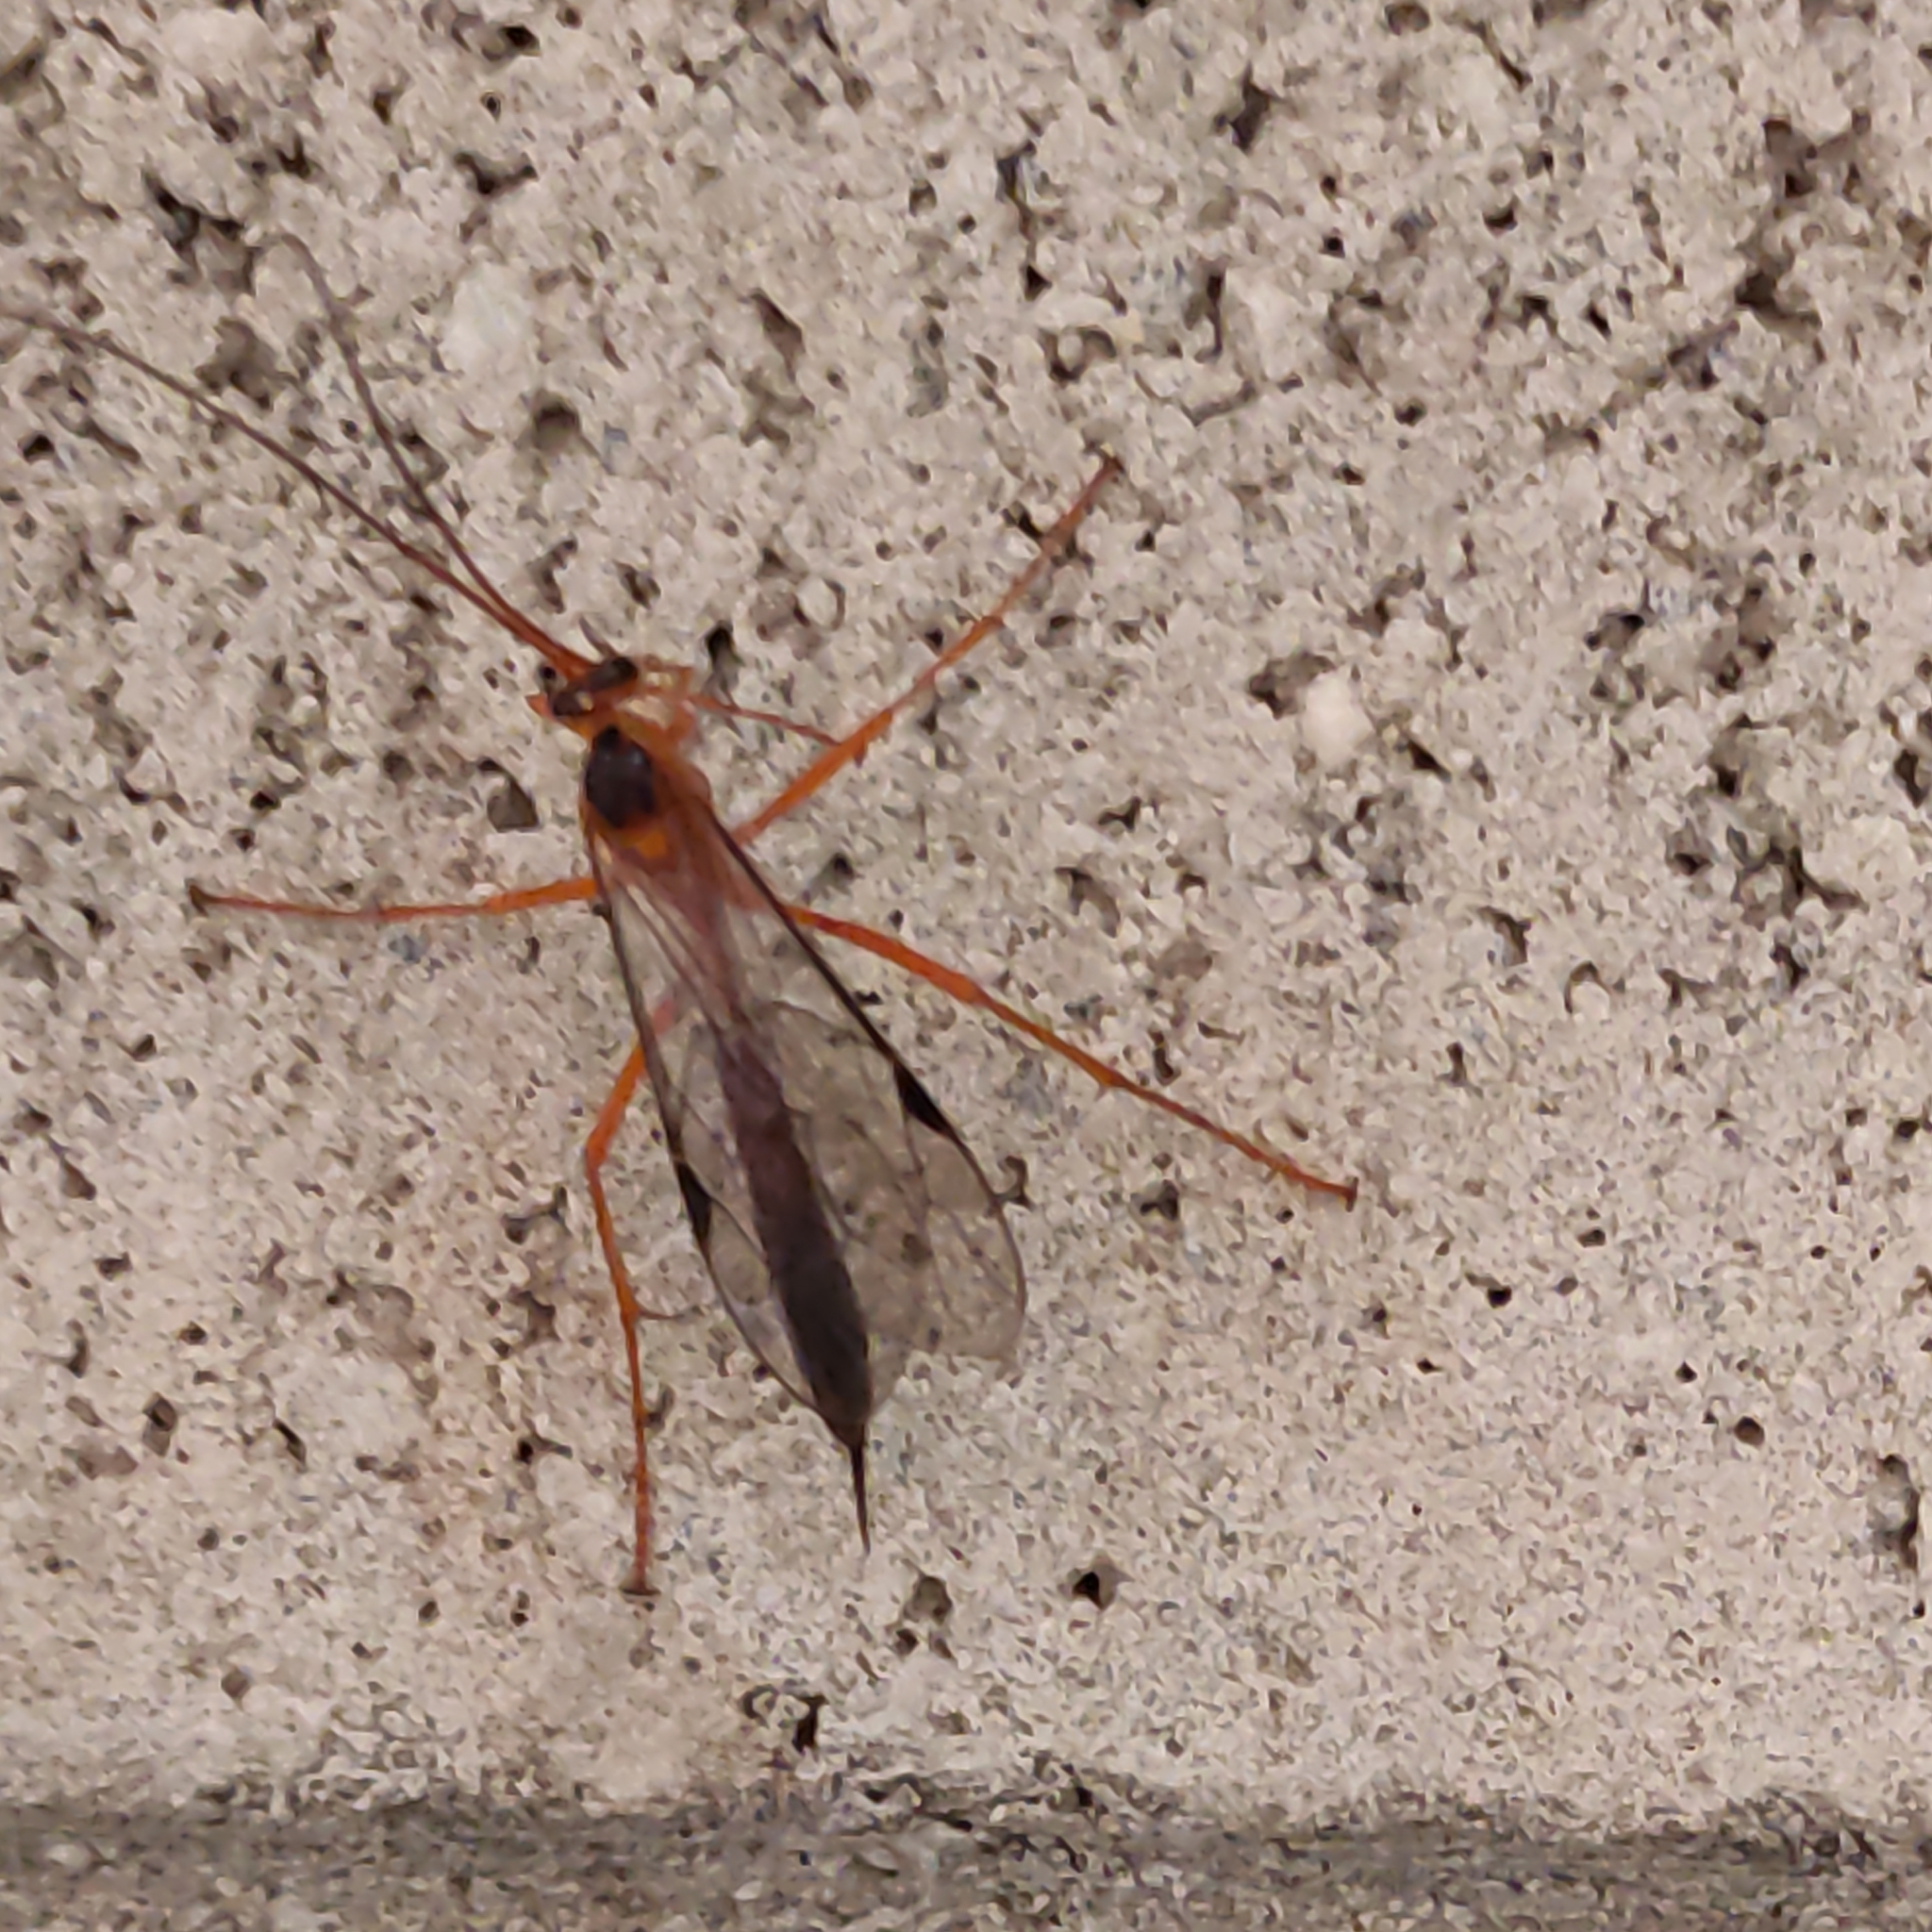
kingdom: Animalia
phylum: Arthropoda
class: Insecta
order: Hymenoptera
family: Ichneumonidae
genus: Netelia
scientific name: Netelia ephippiata
